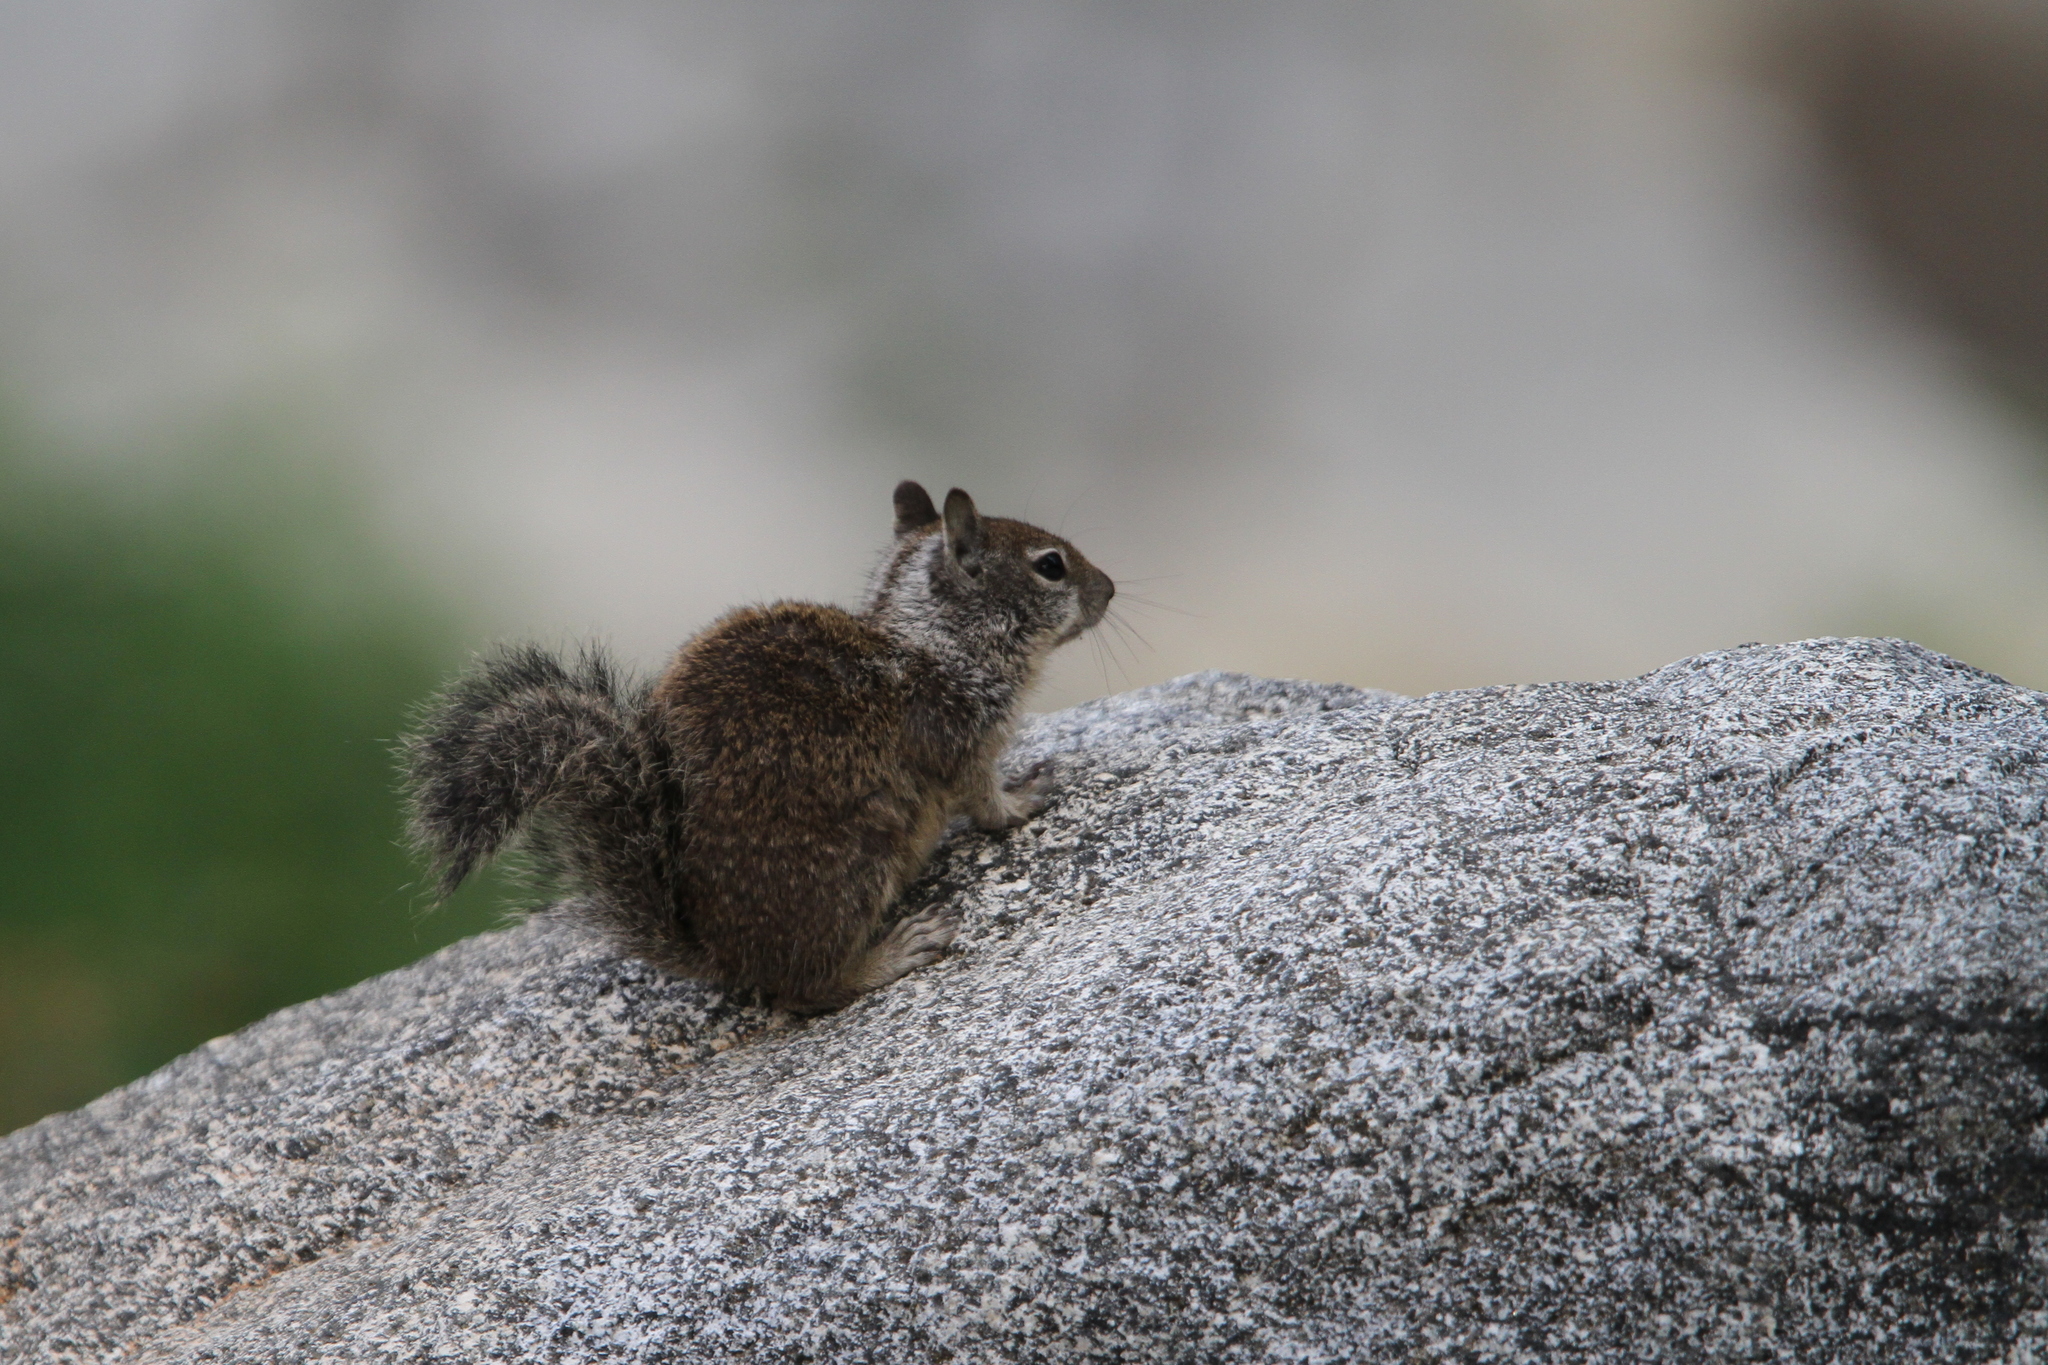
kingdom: Animalia
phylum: Chordata
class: Mammalia
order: Rodentia
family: Sciuridae
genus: Otospermophilus
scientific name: Otospermophilus beecheyi
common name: California ground squirrel
